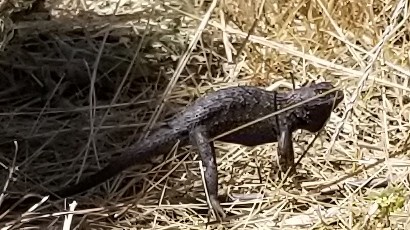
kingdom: Animalia
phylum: Chordata
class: Squamata
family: Phrynosomatidae
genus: Sceloporus
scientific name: Sceloporus occidentalis
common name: Western fence lizard
